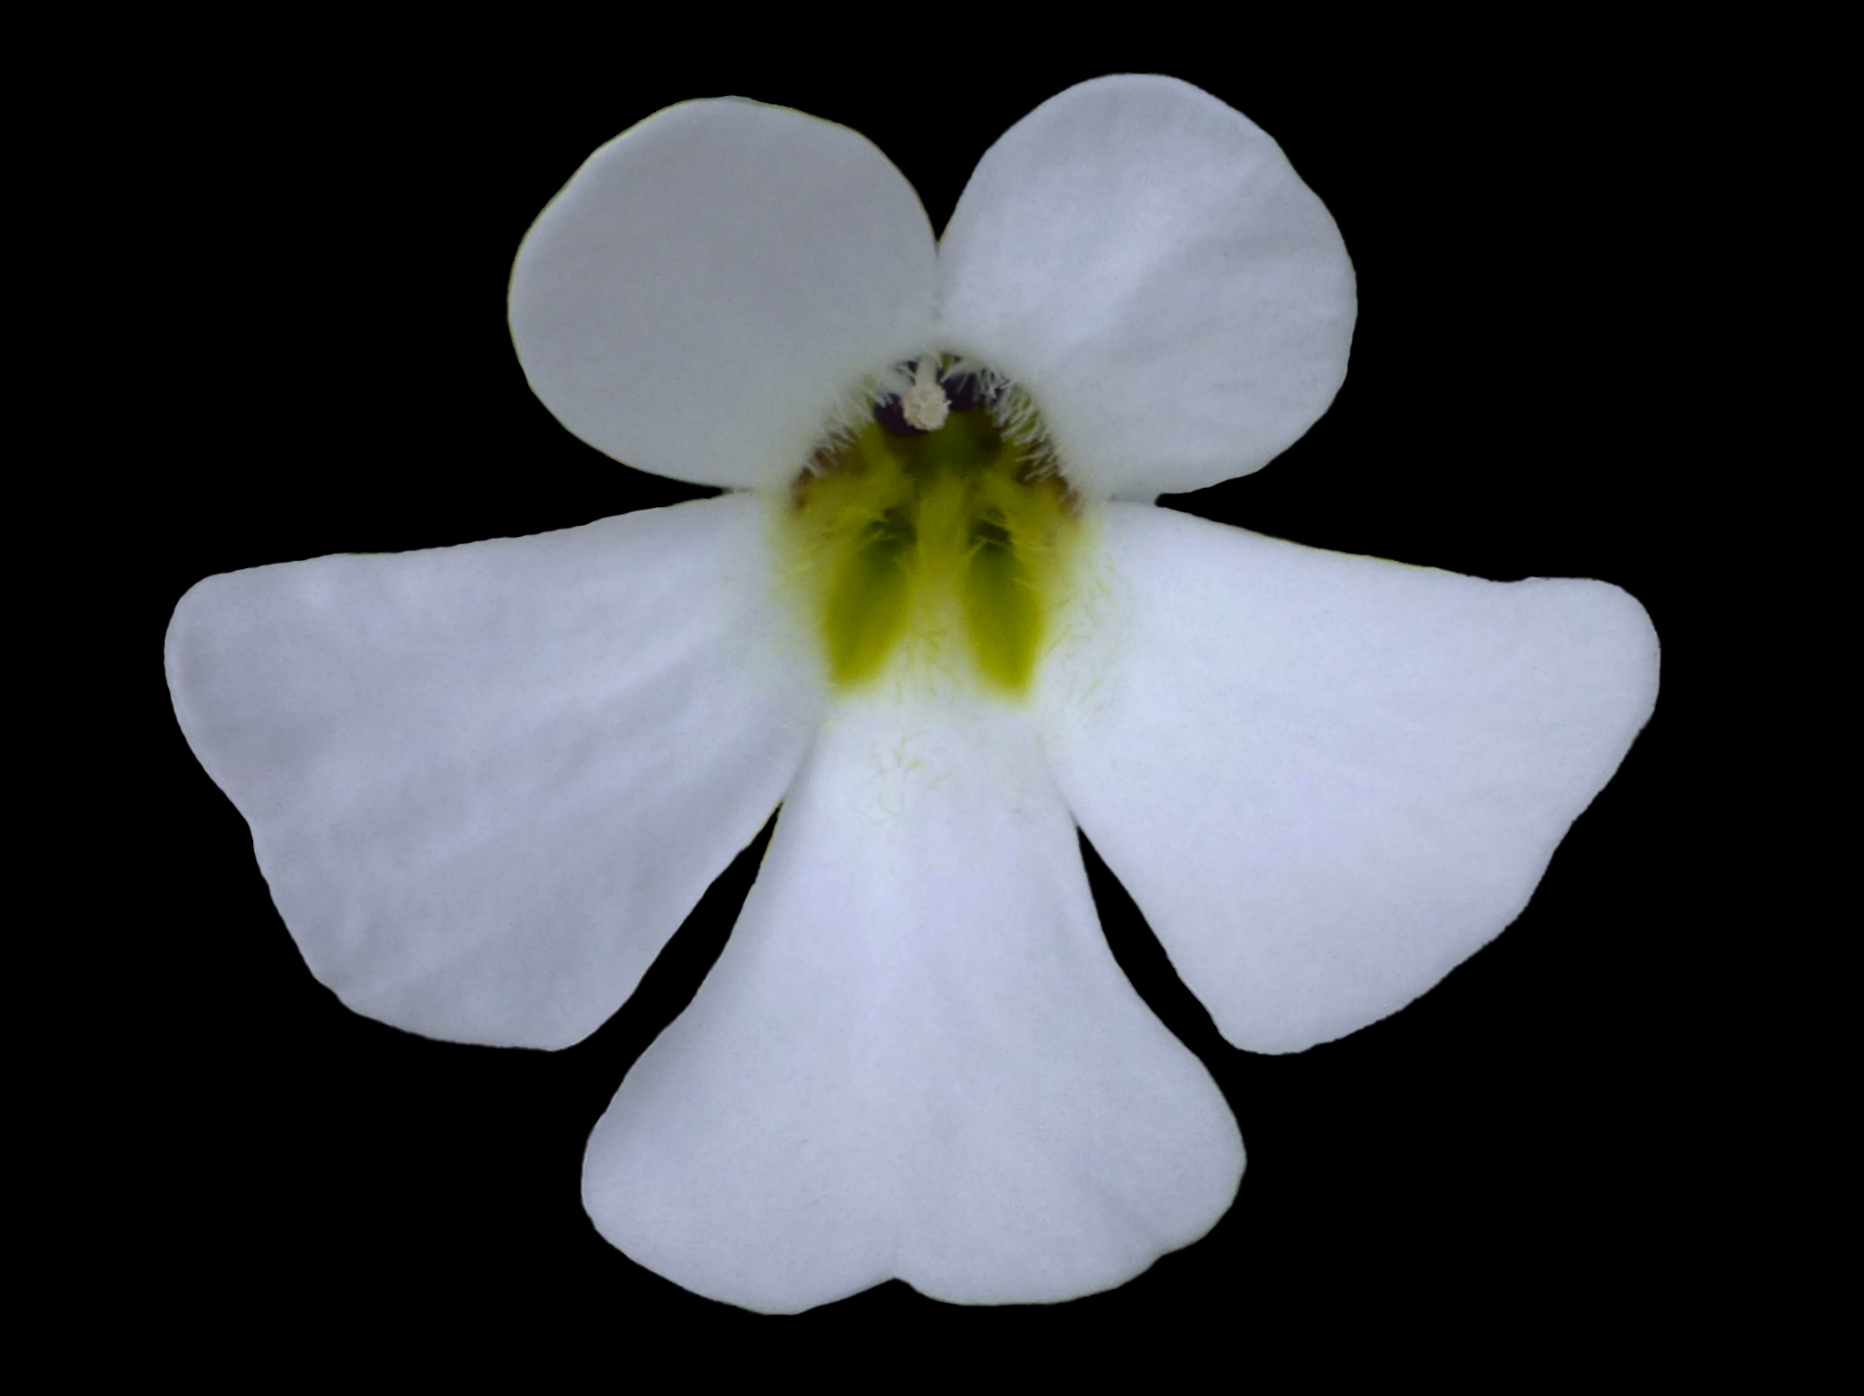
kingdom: Plantae
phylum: Tracheophyta
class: Magnoliopsida
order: Lamiales
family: Plantaginaceae
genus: Ourisia
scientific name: Ourisia caespitosa
